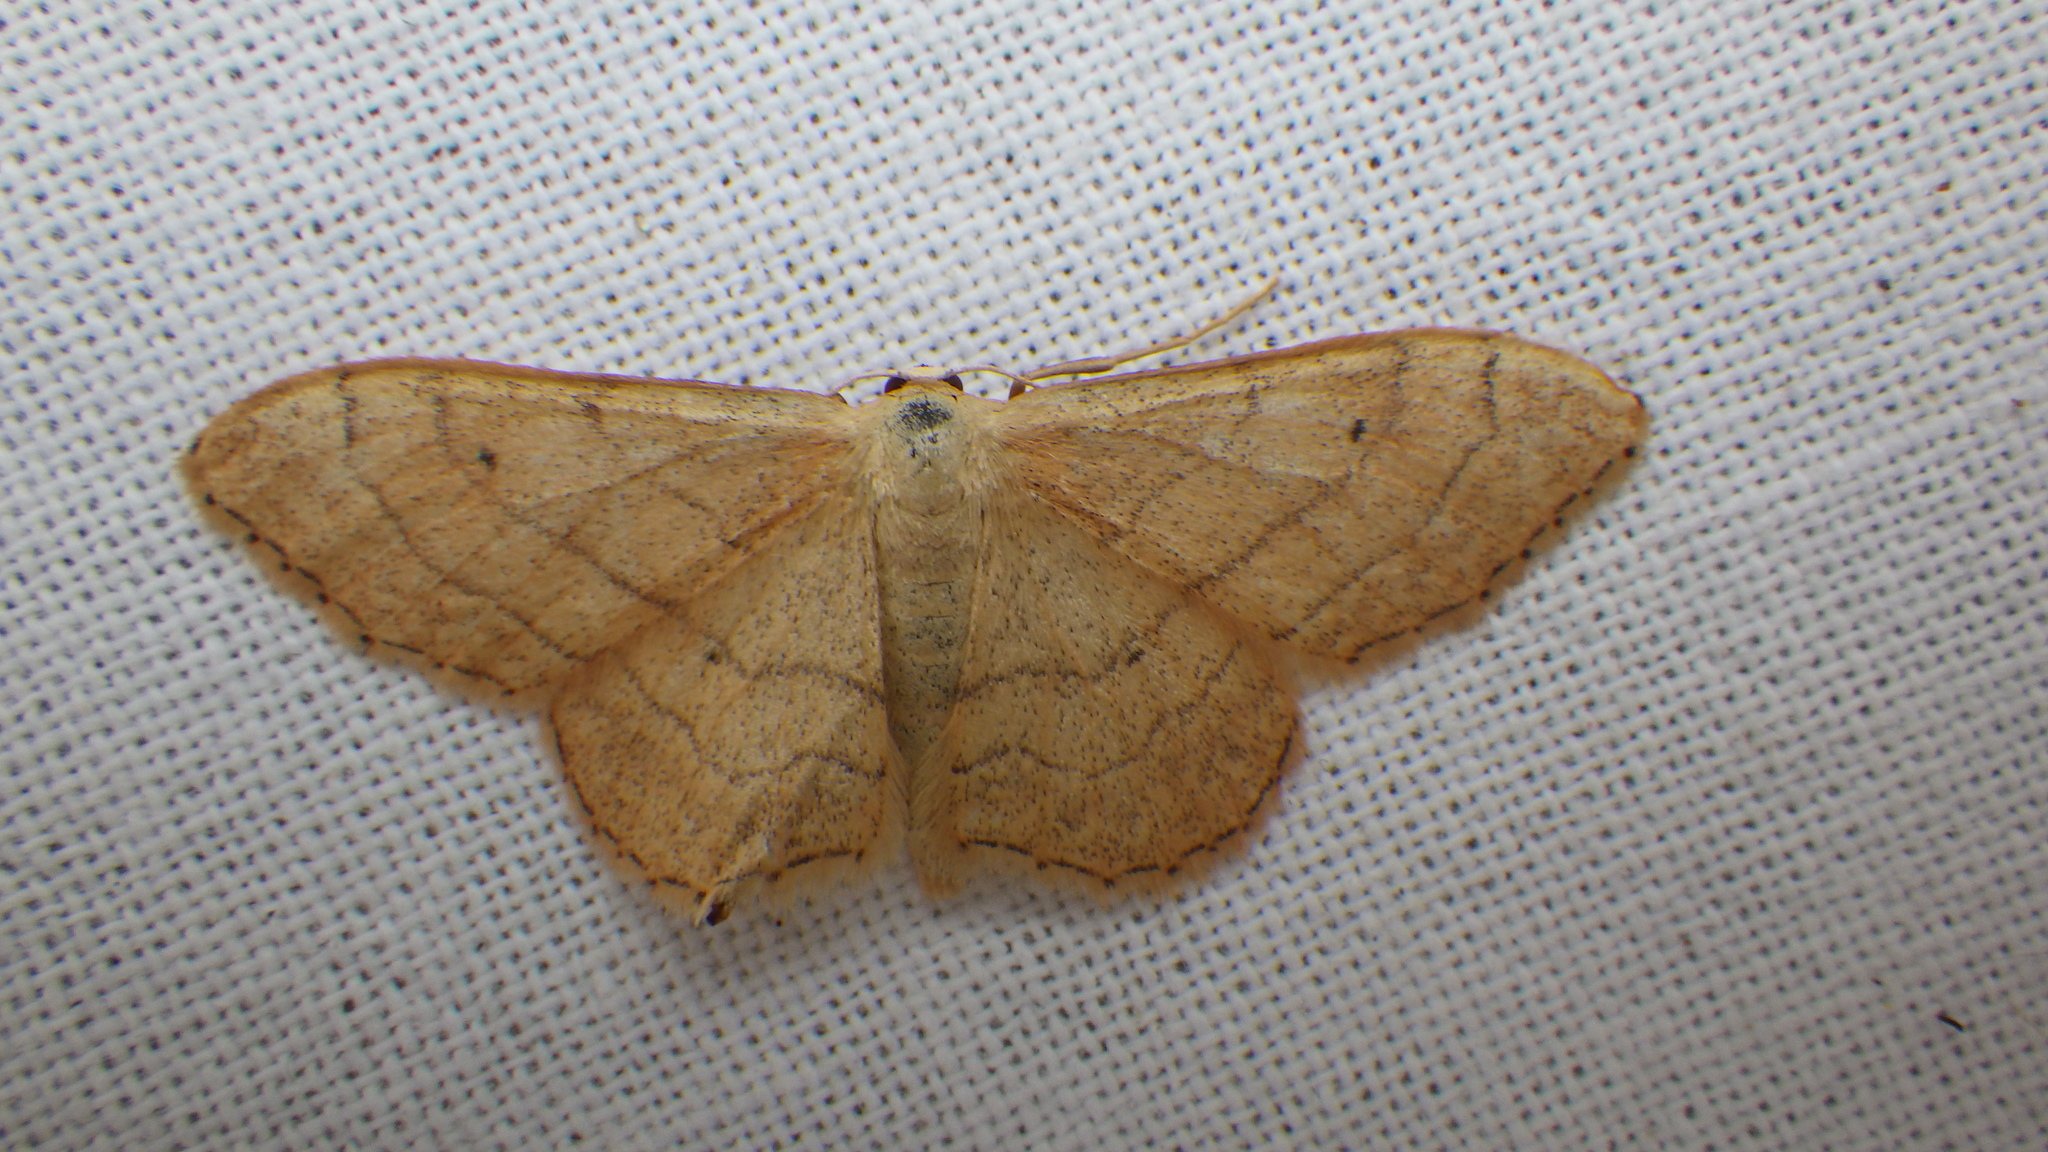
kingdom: Animalia
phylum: Arthropoda
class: Insecta
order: Lepidoptera
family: Geometridae
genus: Idaea
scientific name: Idaea aversata
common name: Riband wave
